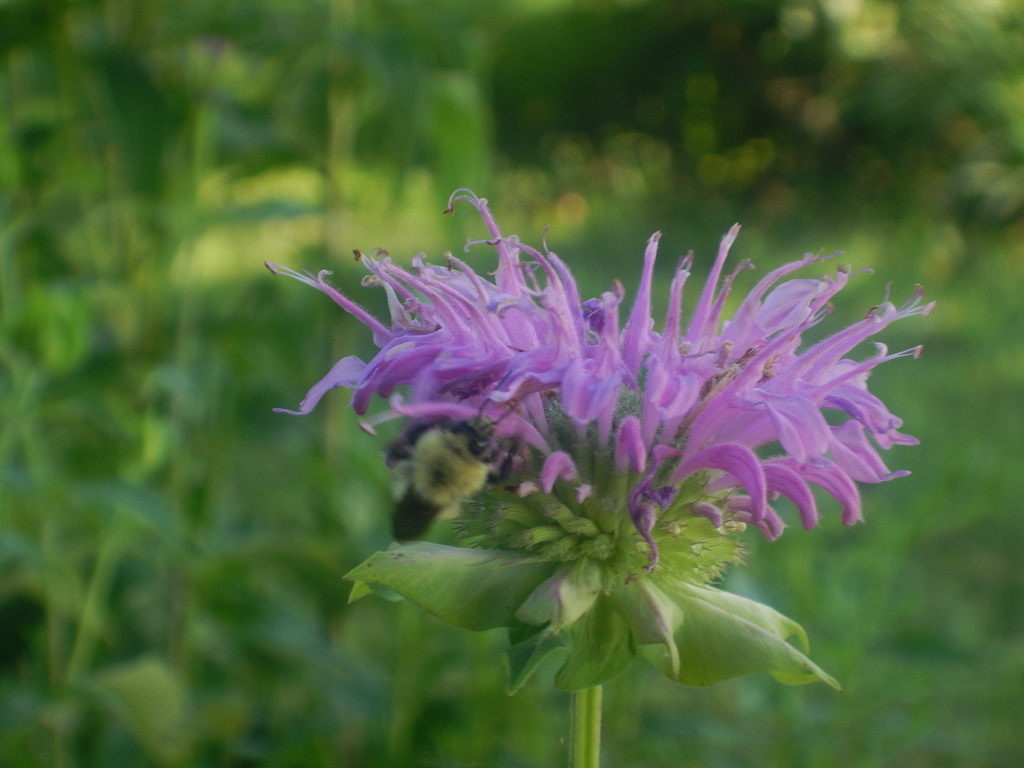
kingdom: Animalia
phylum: Arthropoda
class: Insecta
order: Hymenoptera
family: Apidae
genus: Bombus
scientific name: Bombus bimaculatus
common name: Two-spotted bumble bee
